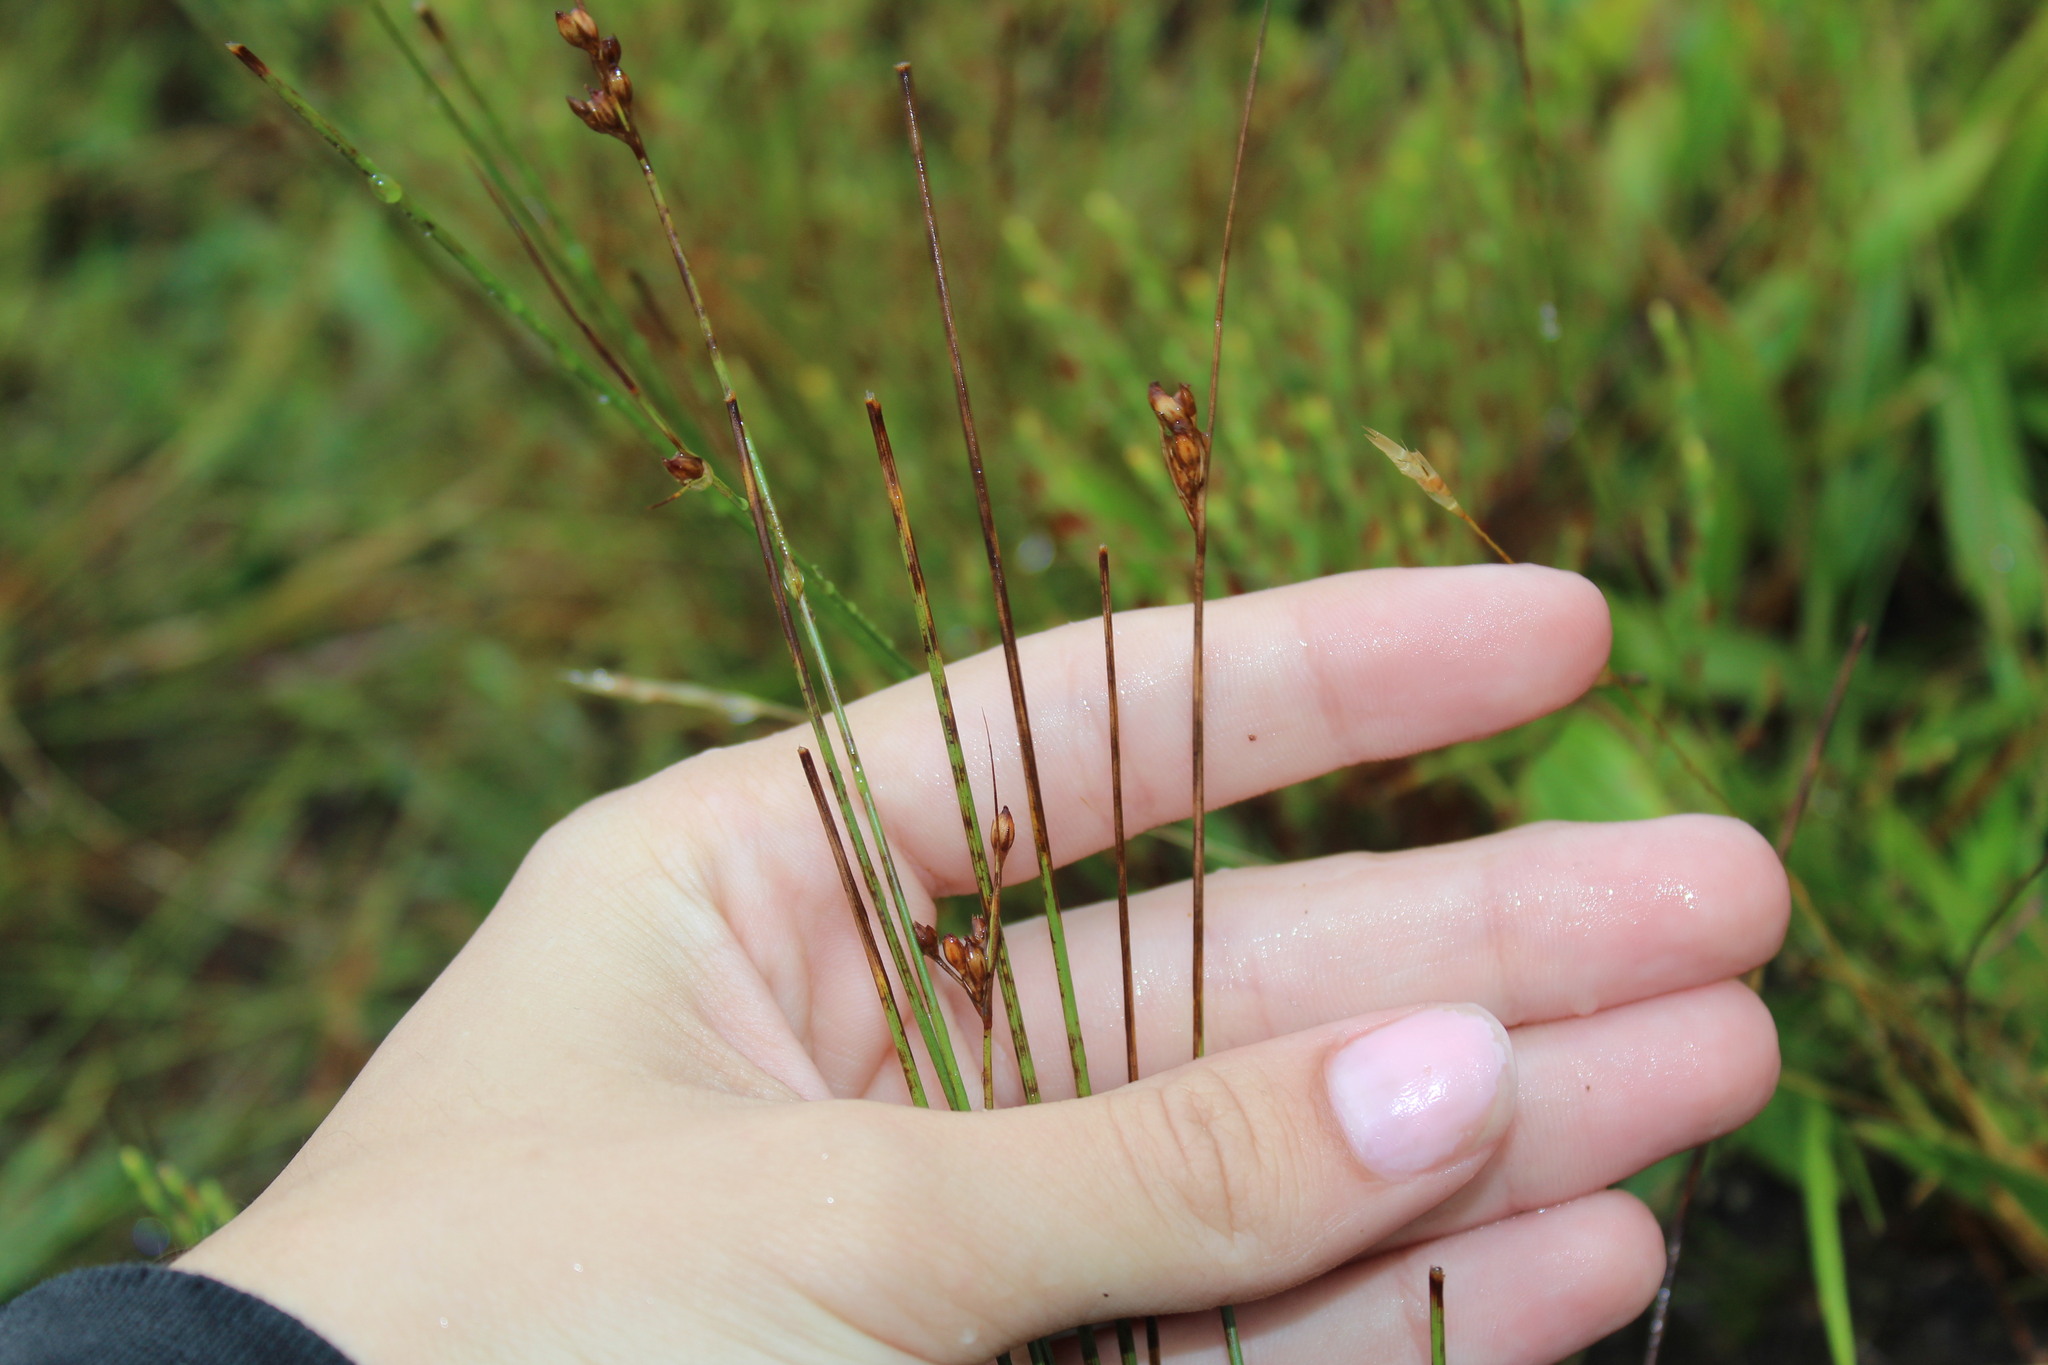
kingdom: Plantae
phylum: Tracheophyta
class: Liliopsida
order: Poales
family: Juncaceae
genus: Juncus
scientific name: Juncus greenei
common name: Greene's rush
